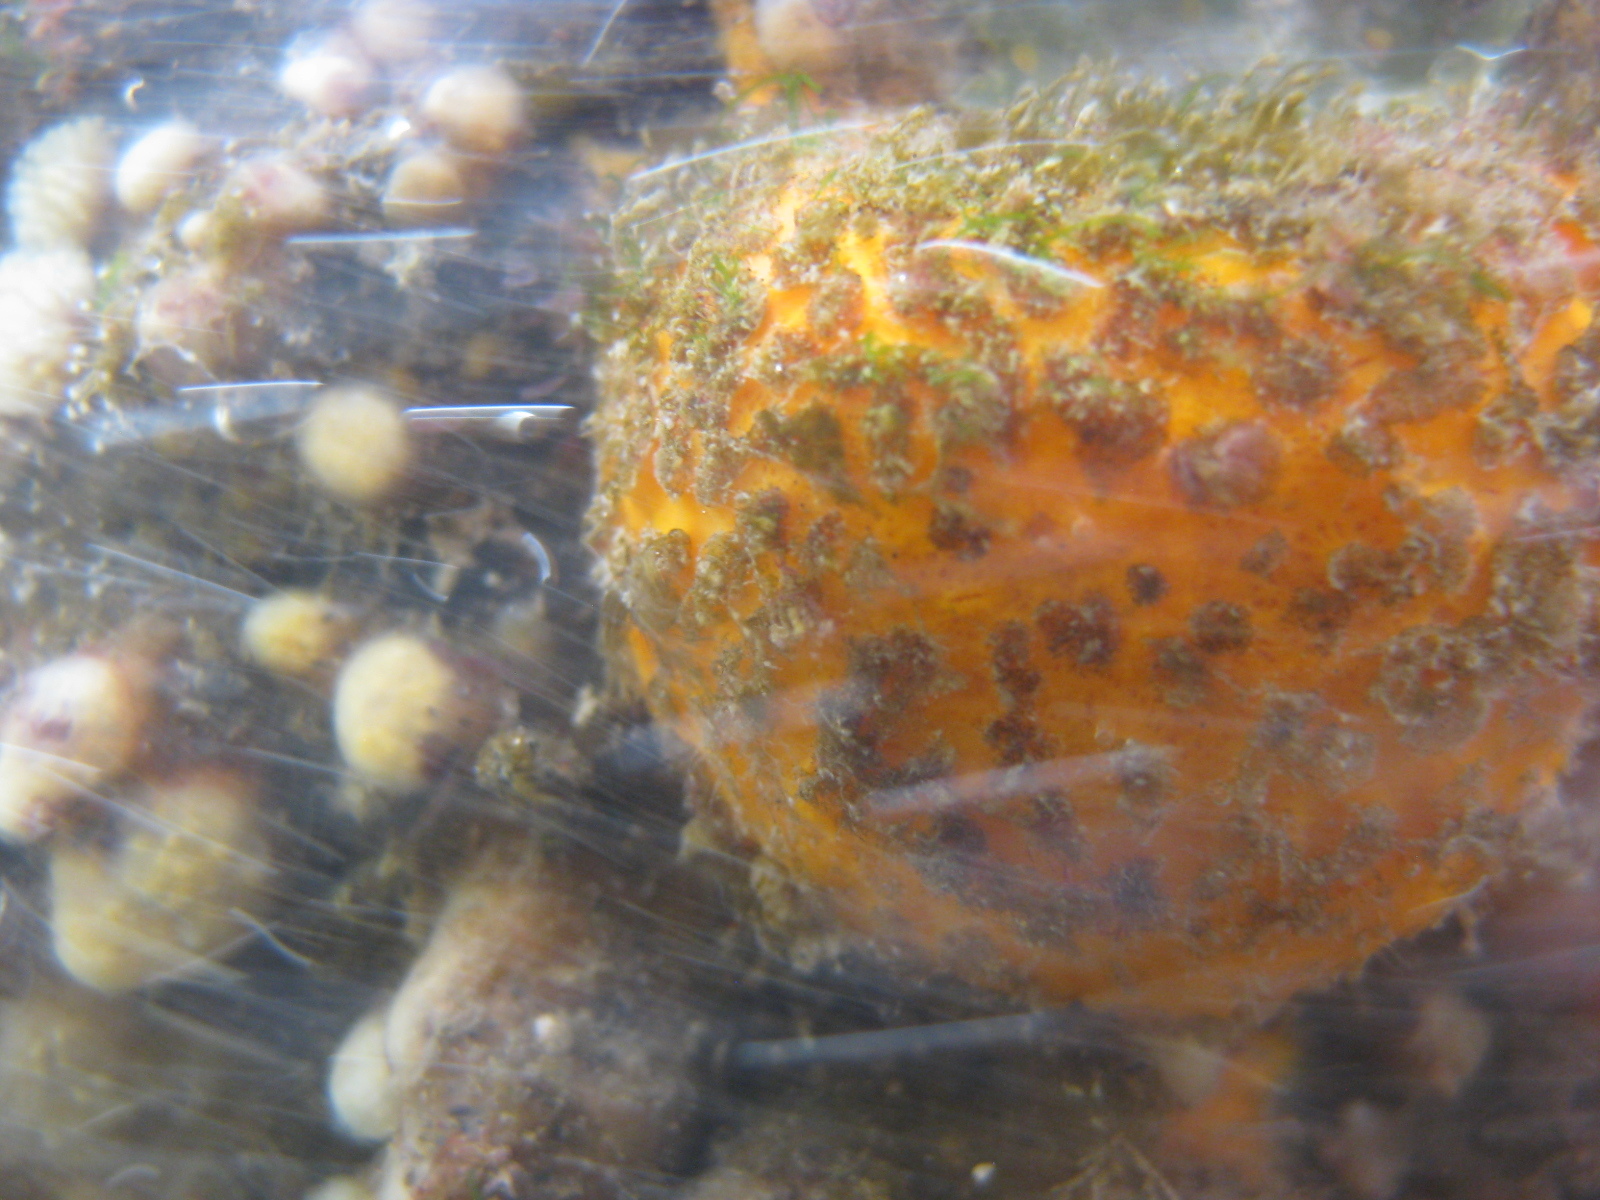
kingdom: Animalia
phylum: Porifera
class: Demospongiae
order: Tethyida
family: Tethyidae
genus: Tethya
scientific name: Tethya burtoni
